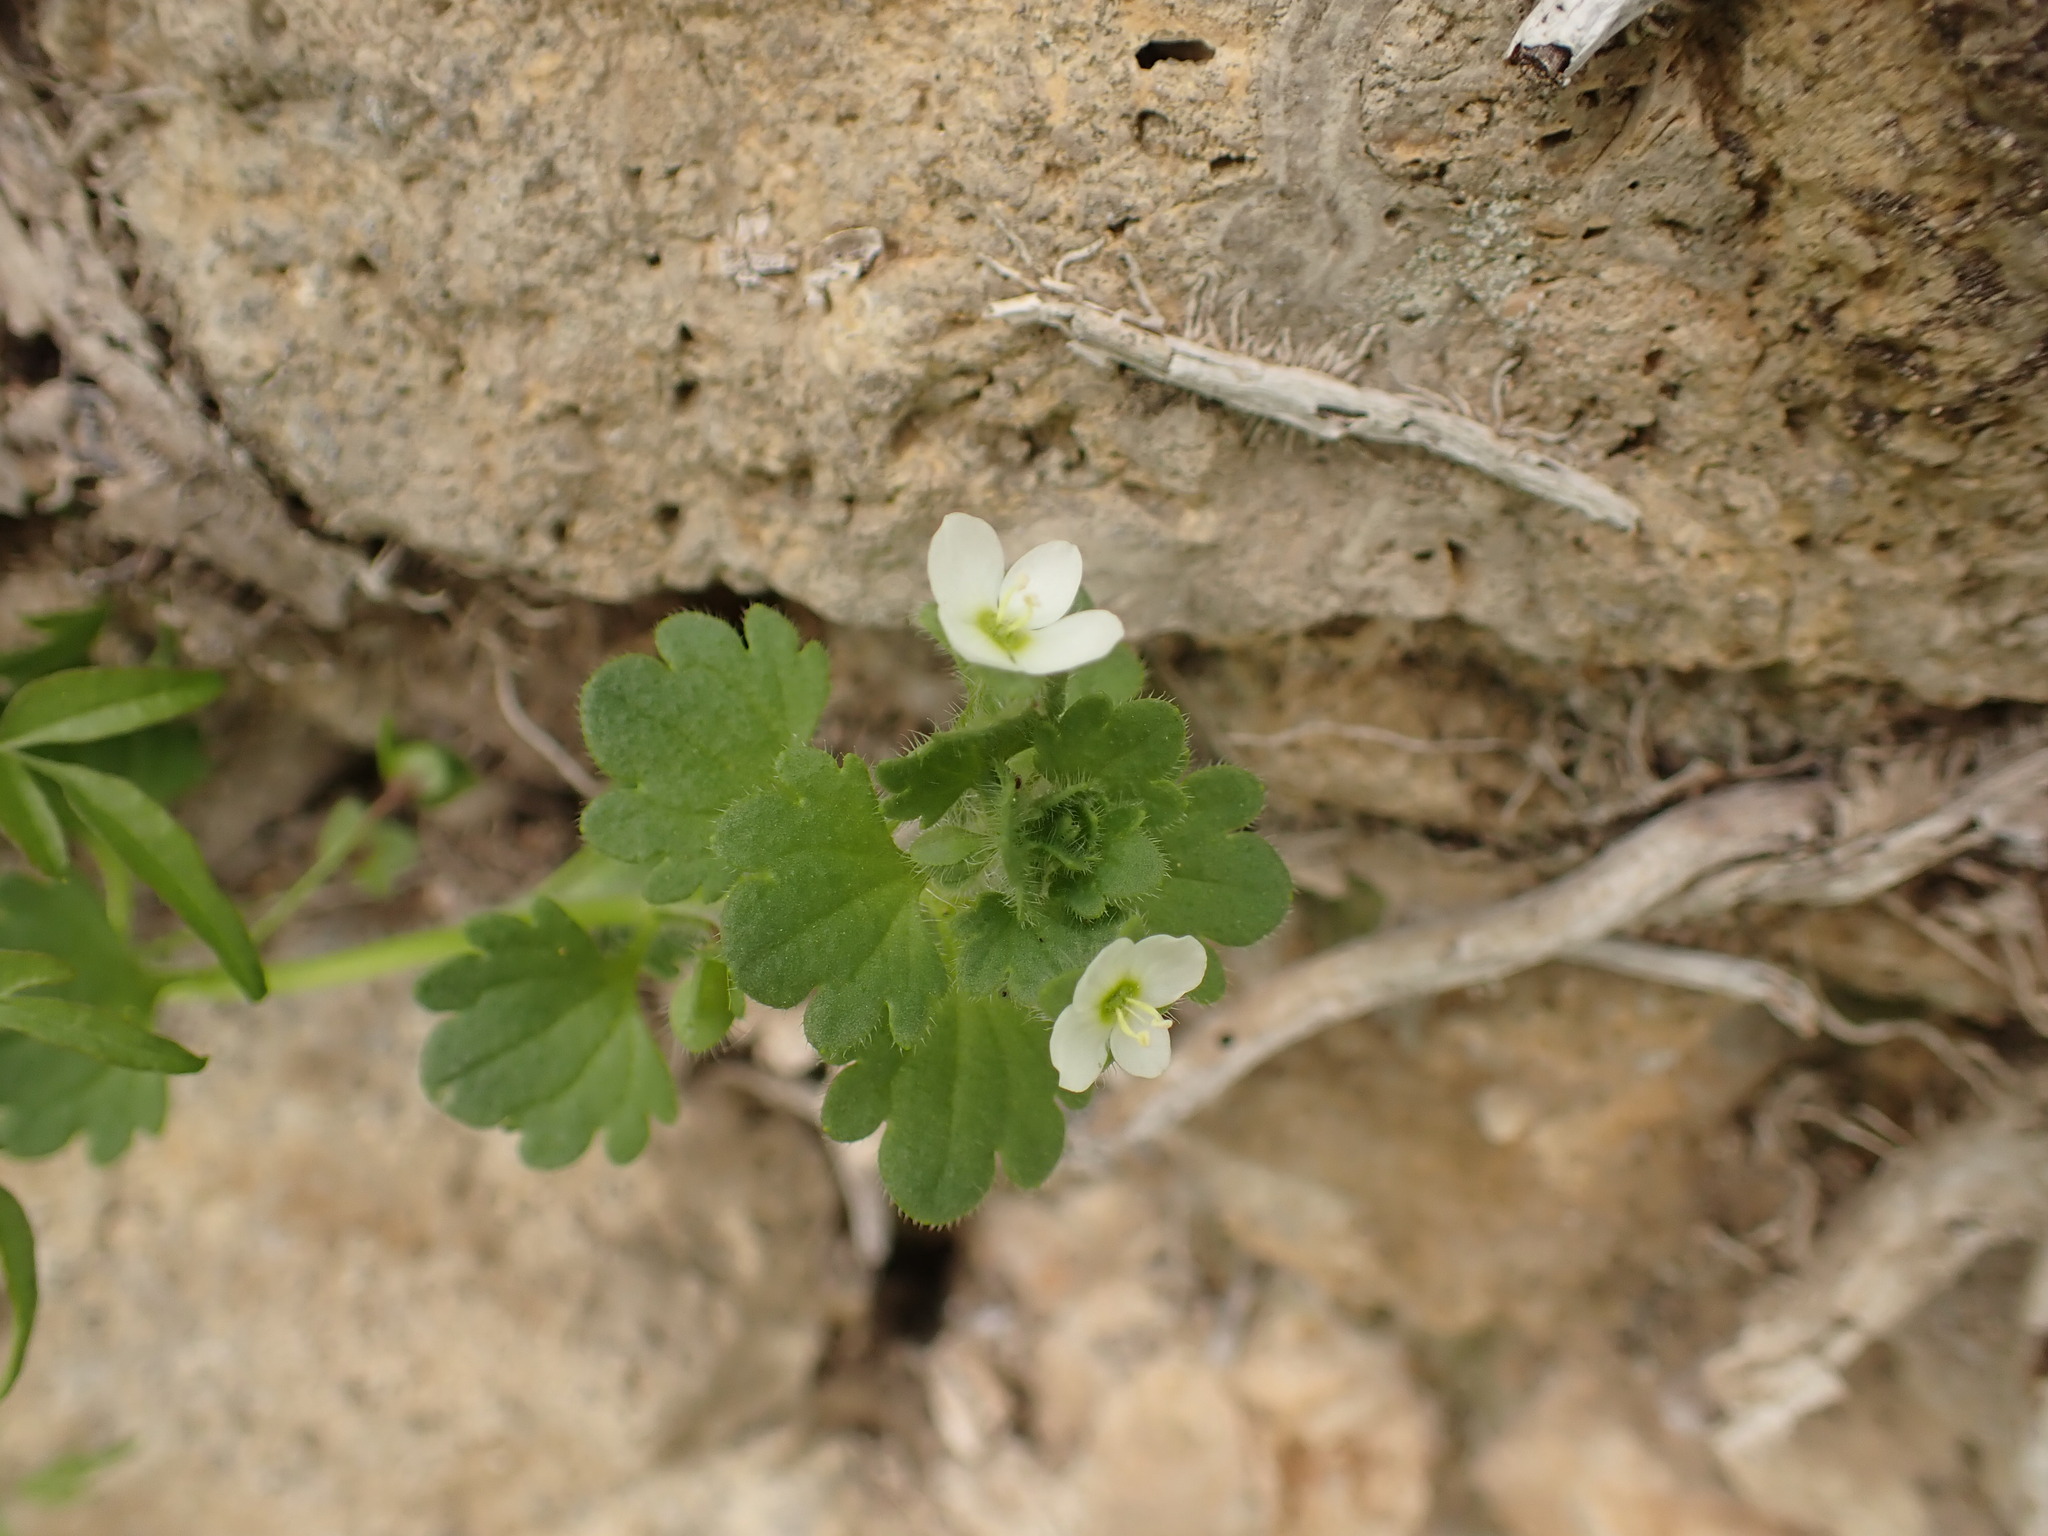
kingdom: Plantae
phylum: Tracheophyta
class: Magnoliopsida
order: Lamiales
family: Plantaginaceae
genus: Veronica
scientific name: Veronica cymbalaria
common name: Pale speedwell
